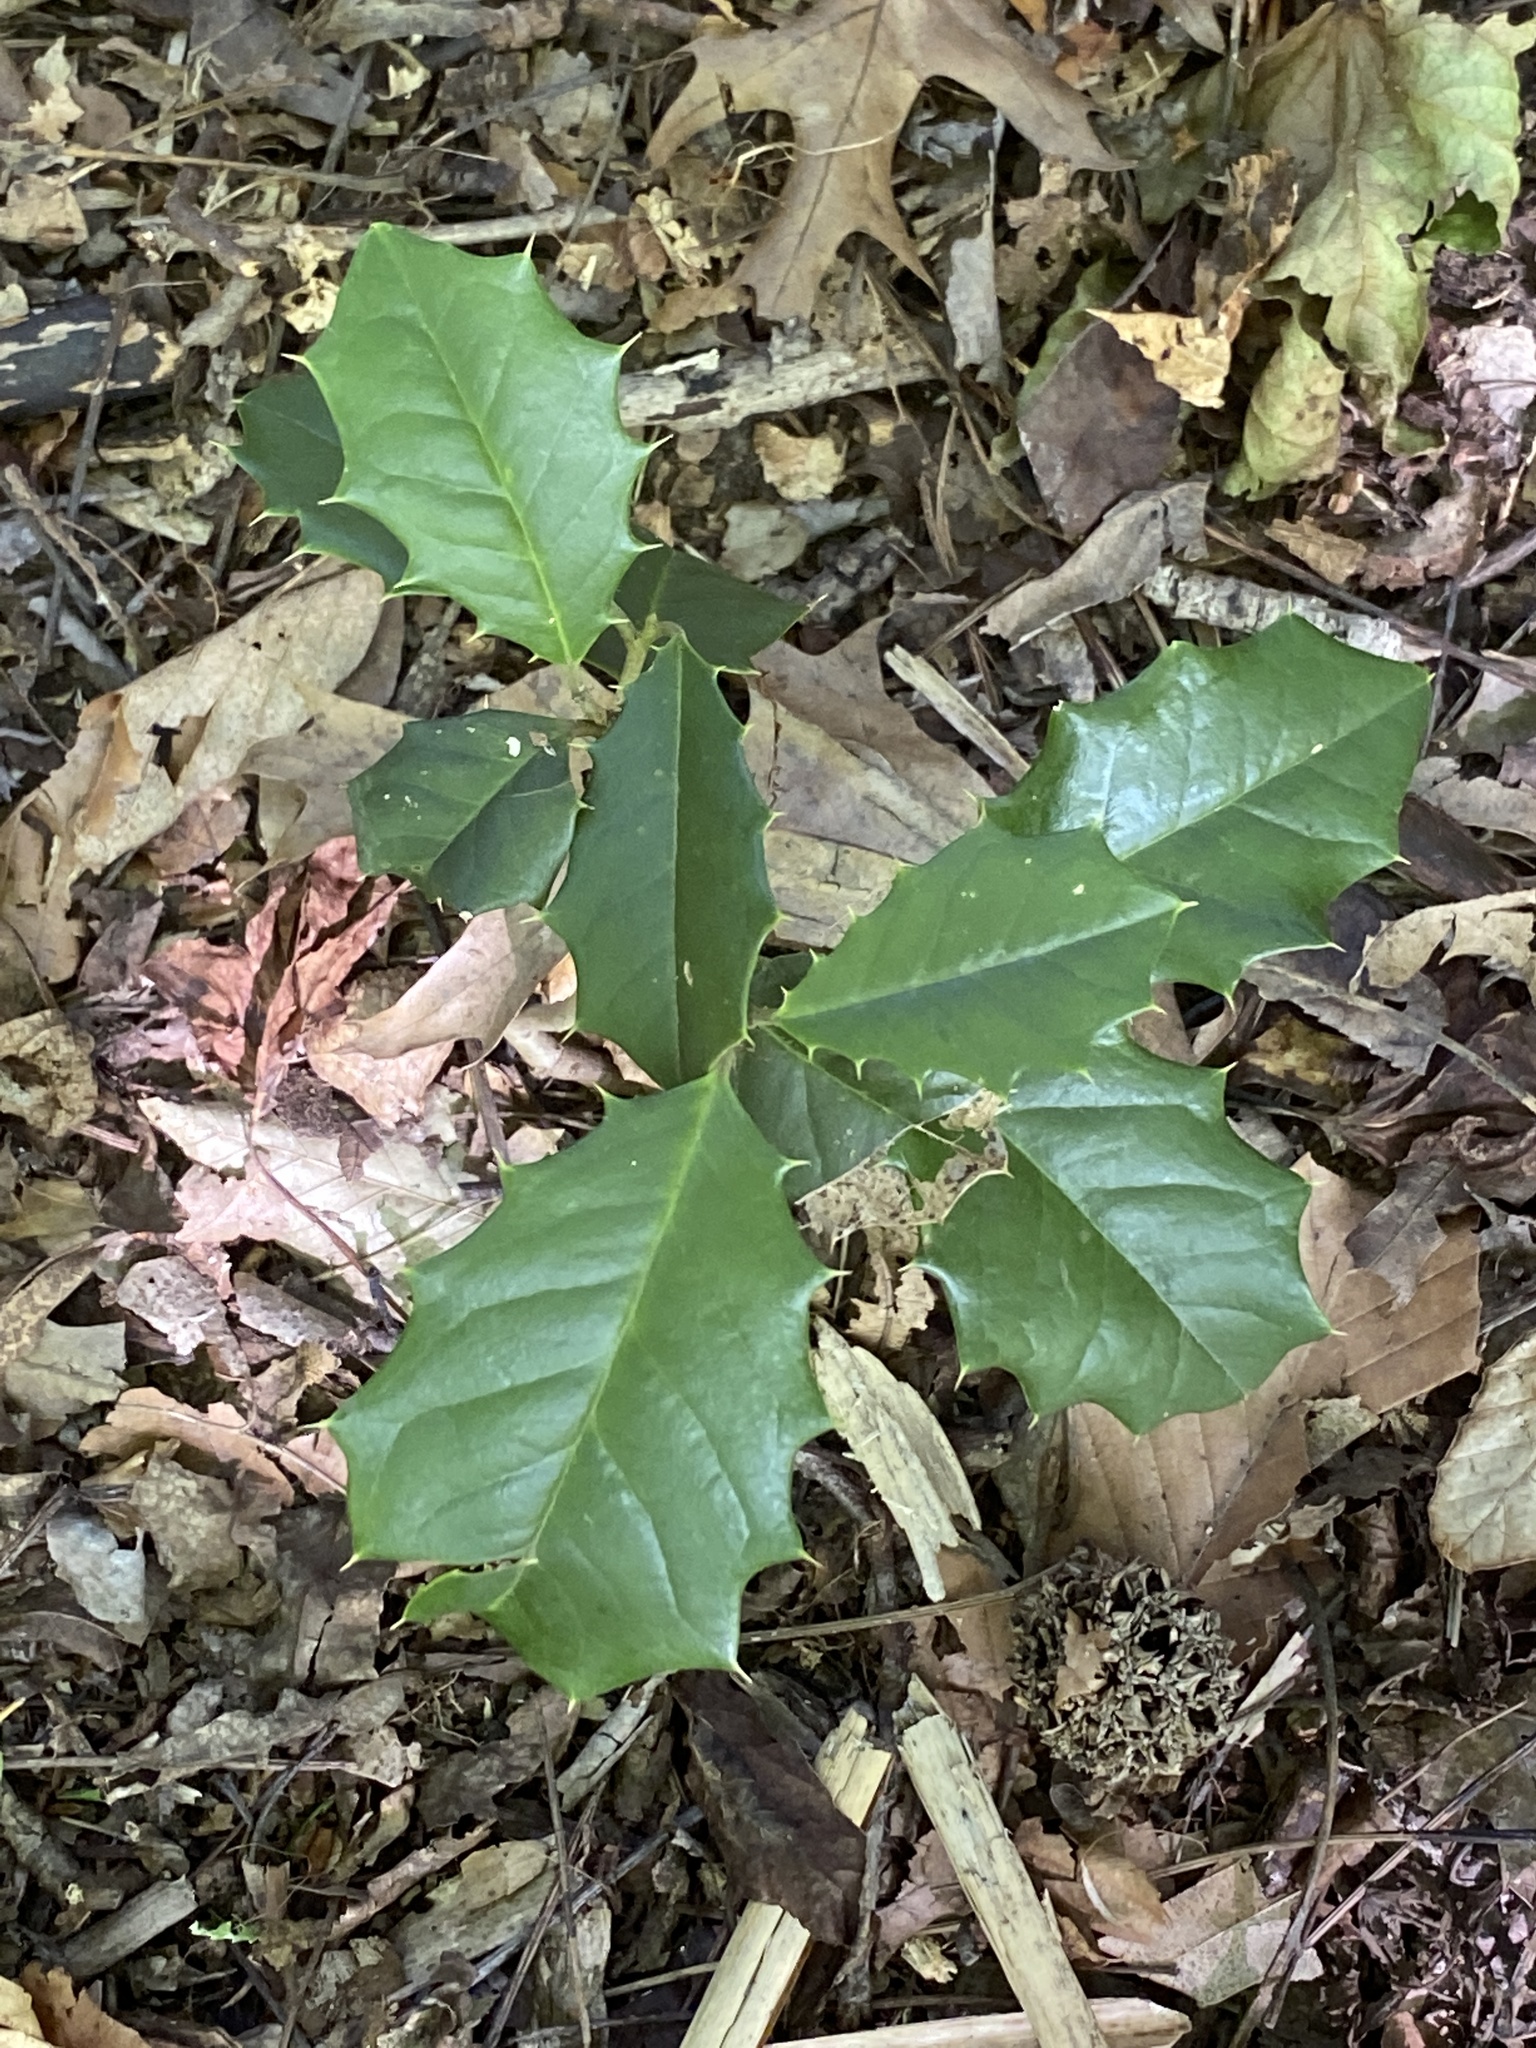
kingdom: Plantae
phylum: Tracheophyta
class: Magnoliopsida
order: Aquifoliales
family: Aquifoliaceae
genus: Ilex
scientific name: Ilex opaca
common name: American holly
